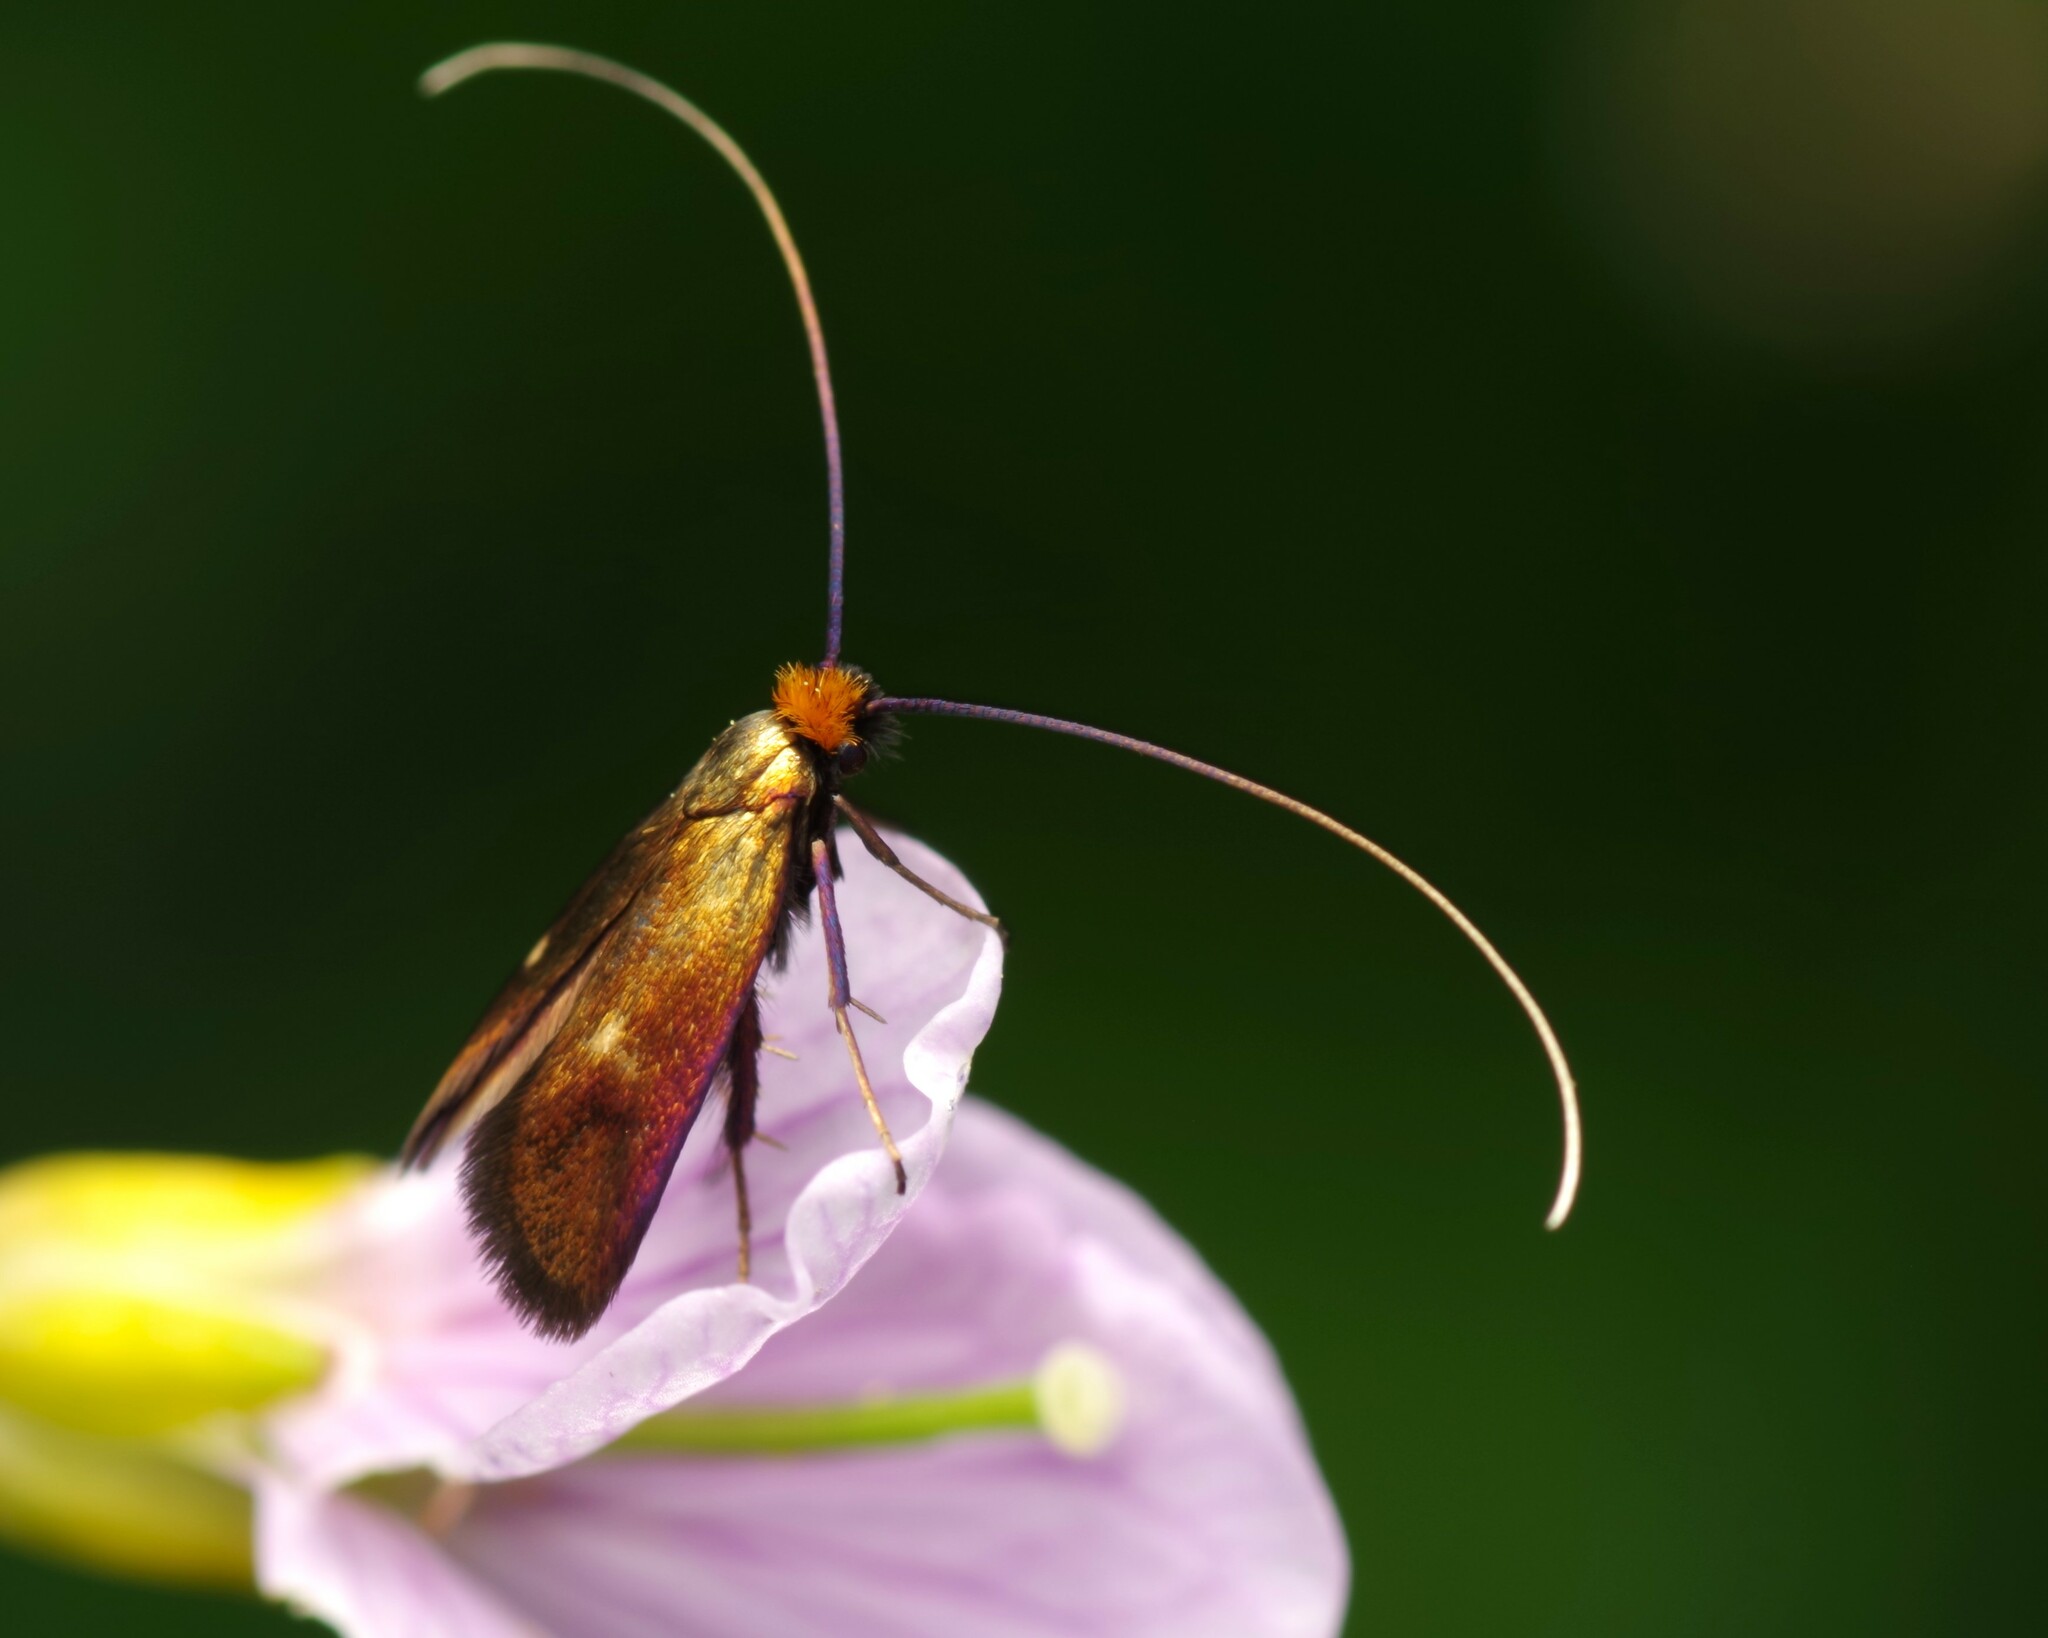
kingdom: Animalia
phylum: Arthropoda
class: Insecta
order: Lepidoptera
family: Adelidae
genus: Cauchas
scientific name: Cauchas rufimitrella
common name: Meadow long-horn
